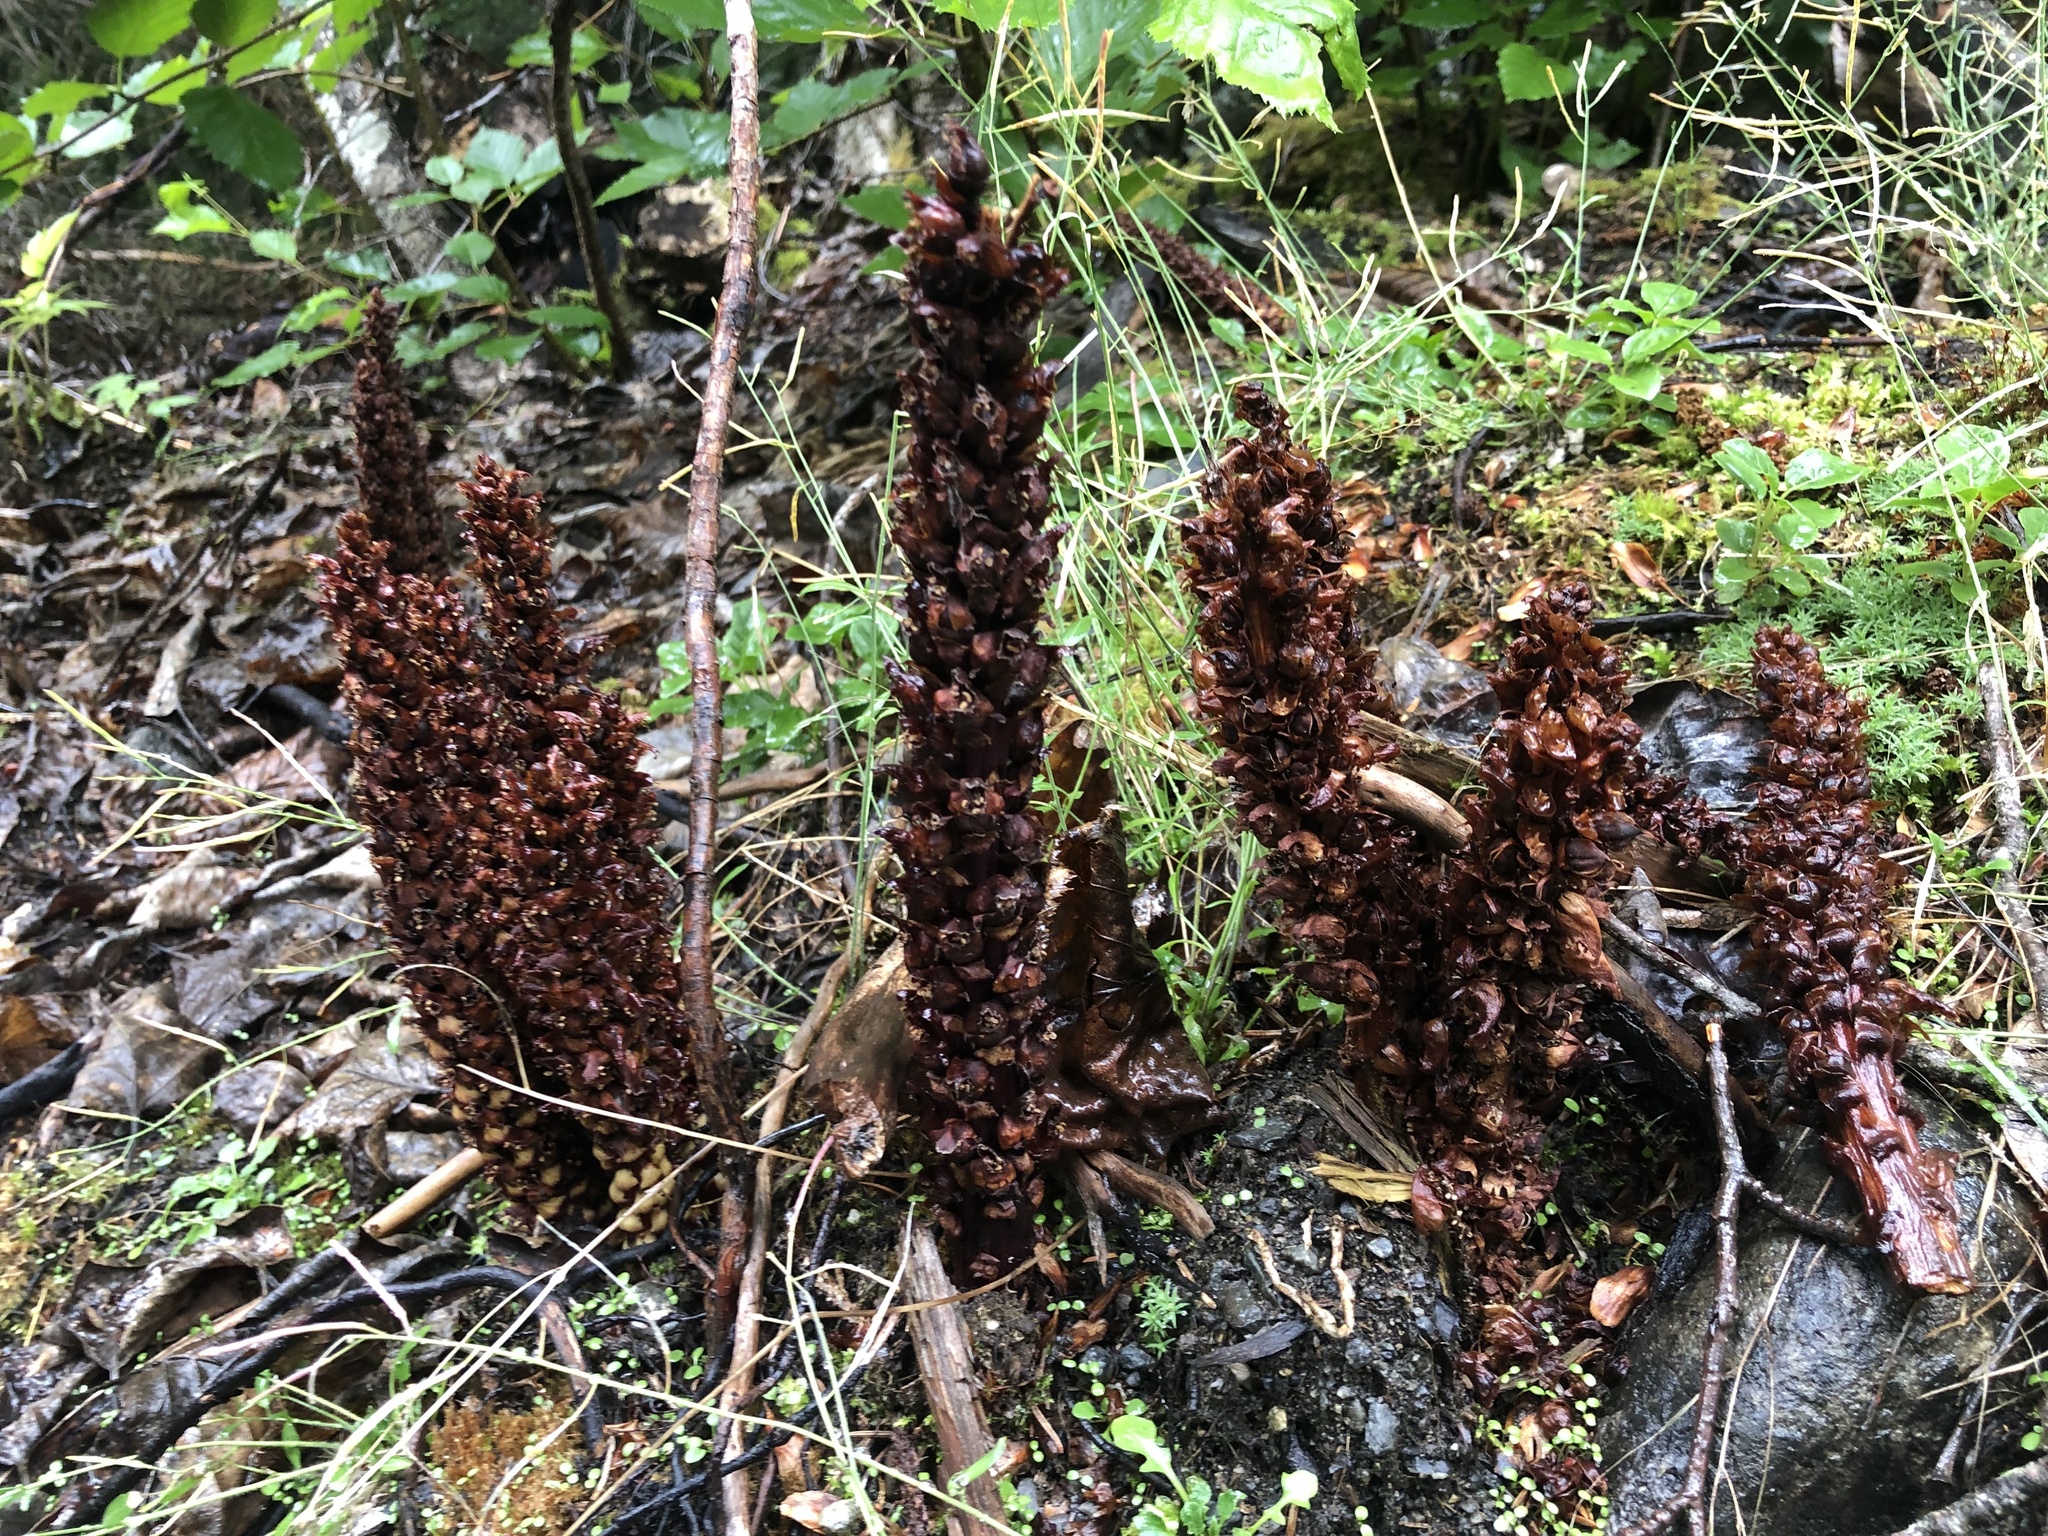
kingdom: Plantae
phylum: Tracheophyta
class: Magnoliopsida
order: Lamiales
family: Orobanchaceae
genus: Boschniakia
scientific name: Boschniakia rossica
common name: Poque
